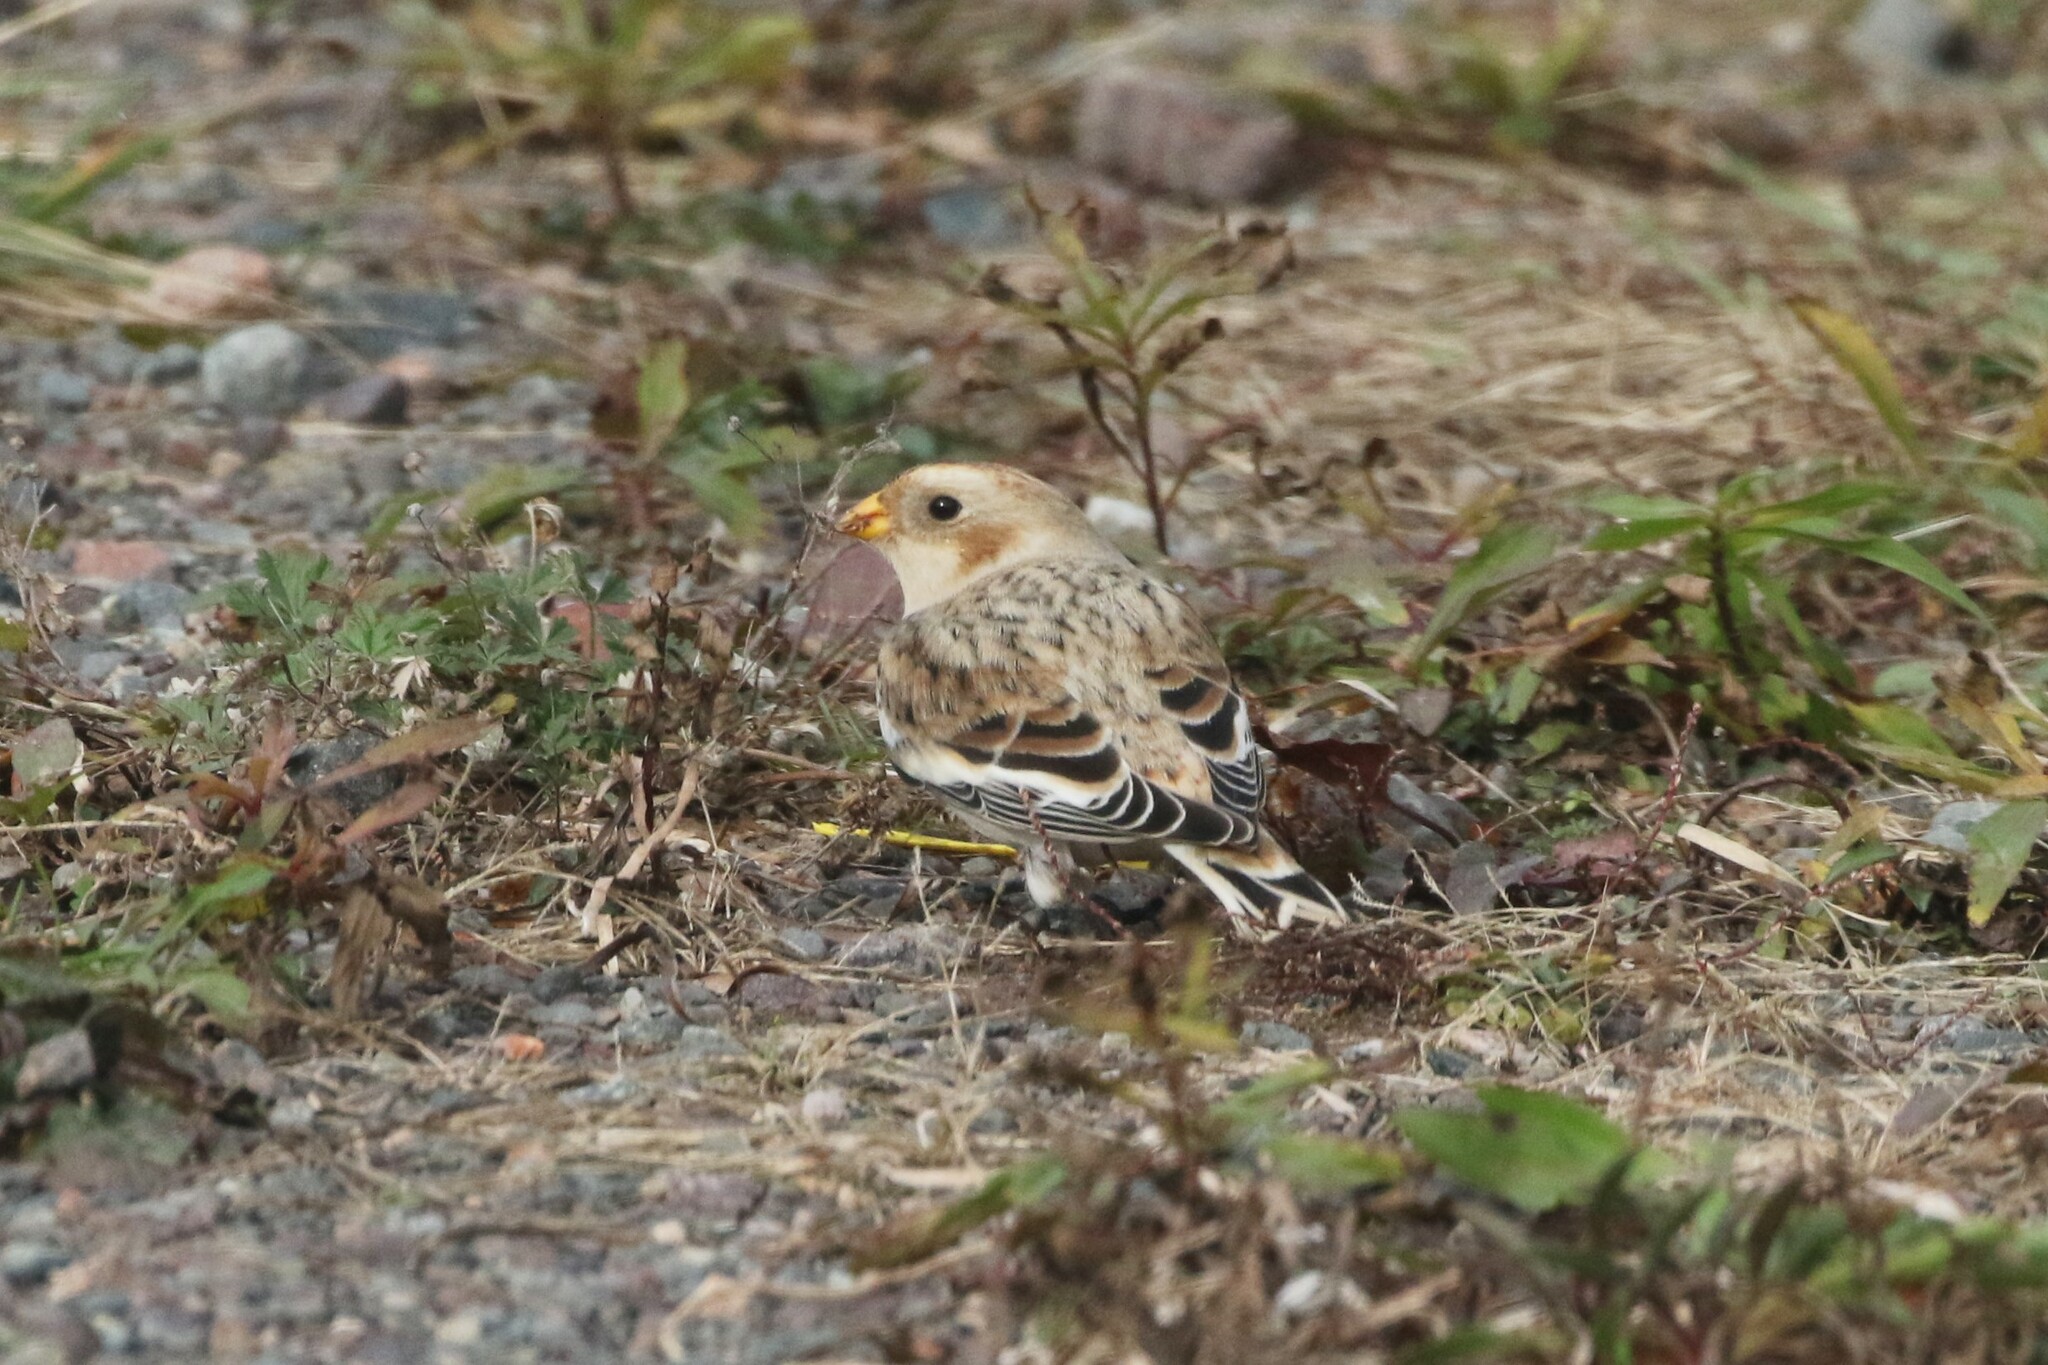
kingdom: Animalia
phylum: Chordata
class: Aves
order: Passeriformes
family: Calcariidae
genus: Plectrophenax
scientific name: Plectrophenax nivalis
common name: Snow bunting
